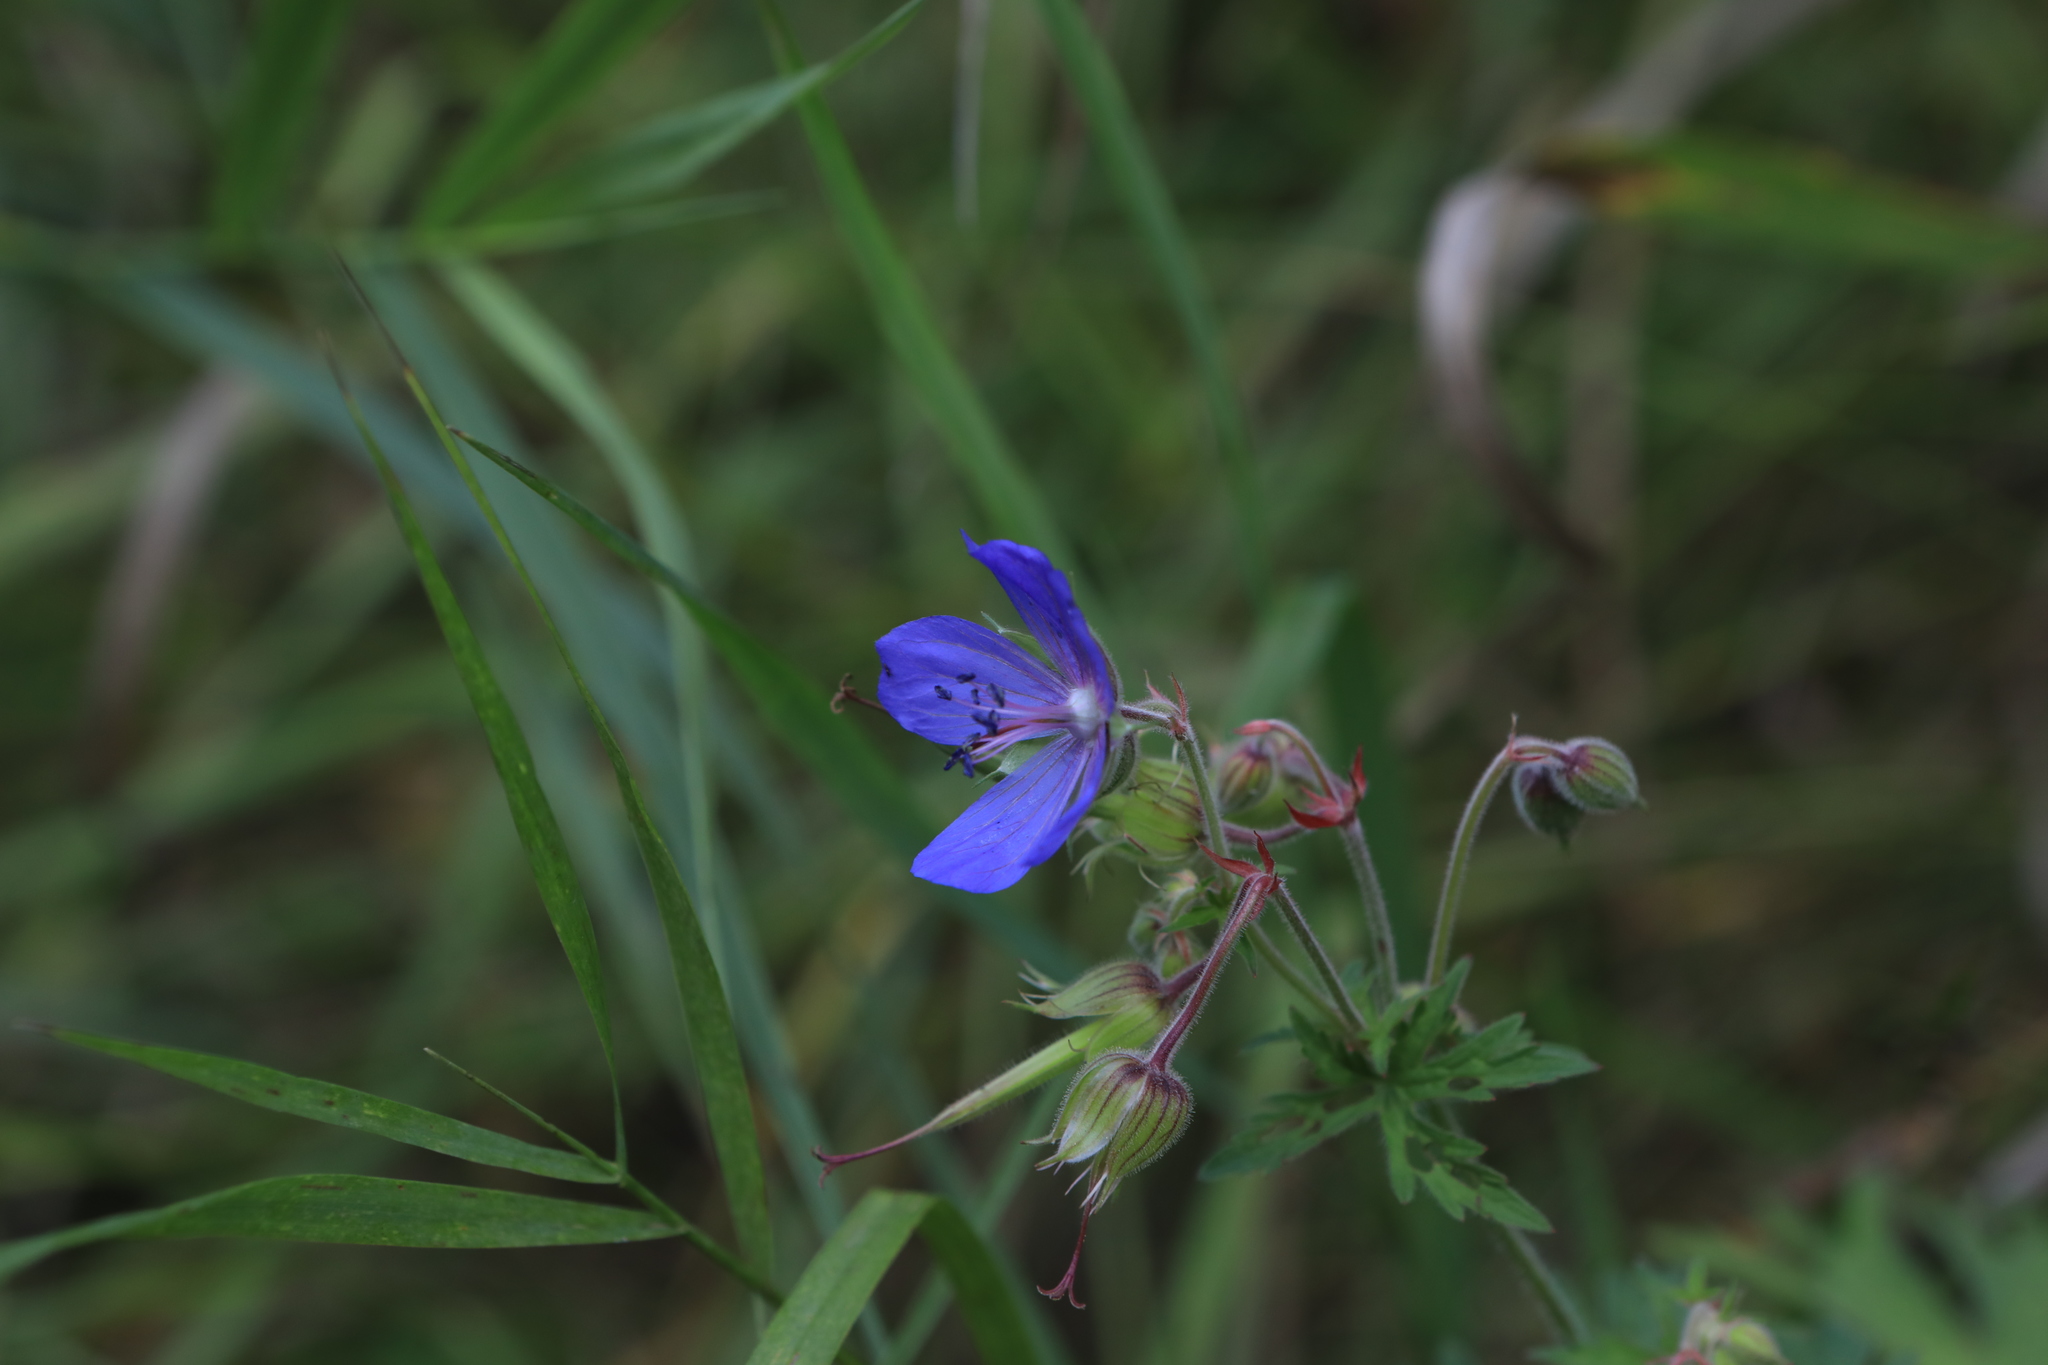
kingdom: Plantae
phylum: Tracheophyta
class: Magnoliopsida
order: Geraniales
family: Geraniaceae
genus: Geranium
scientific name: Geranium pratense
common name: Meadow crane's-bill
